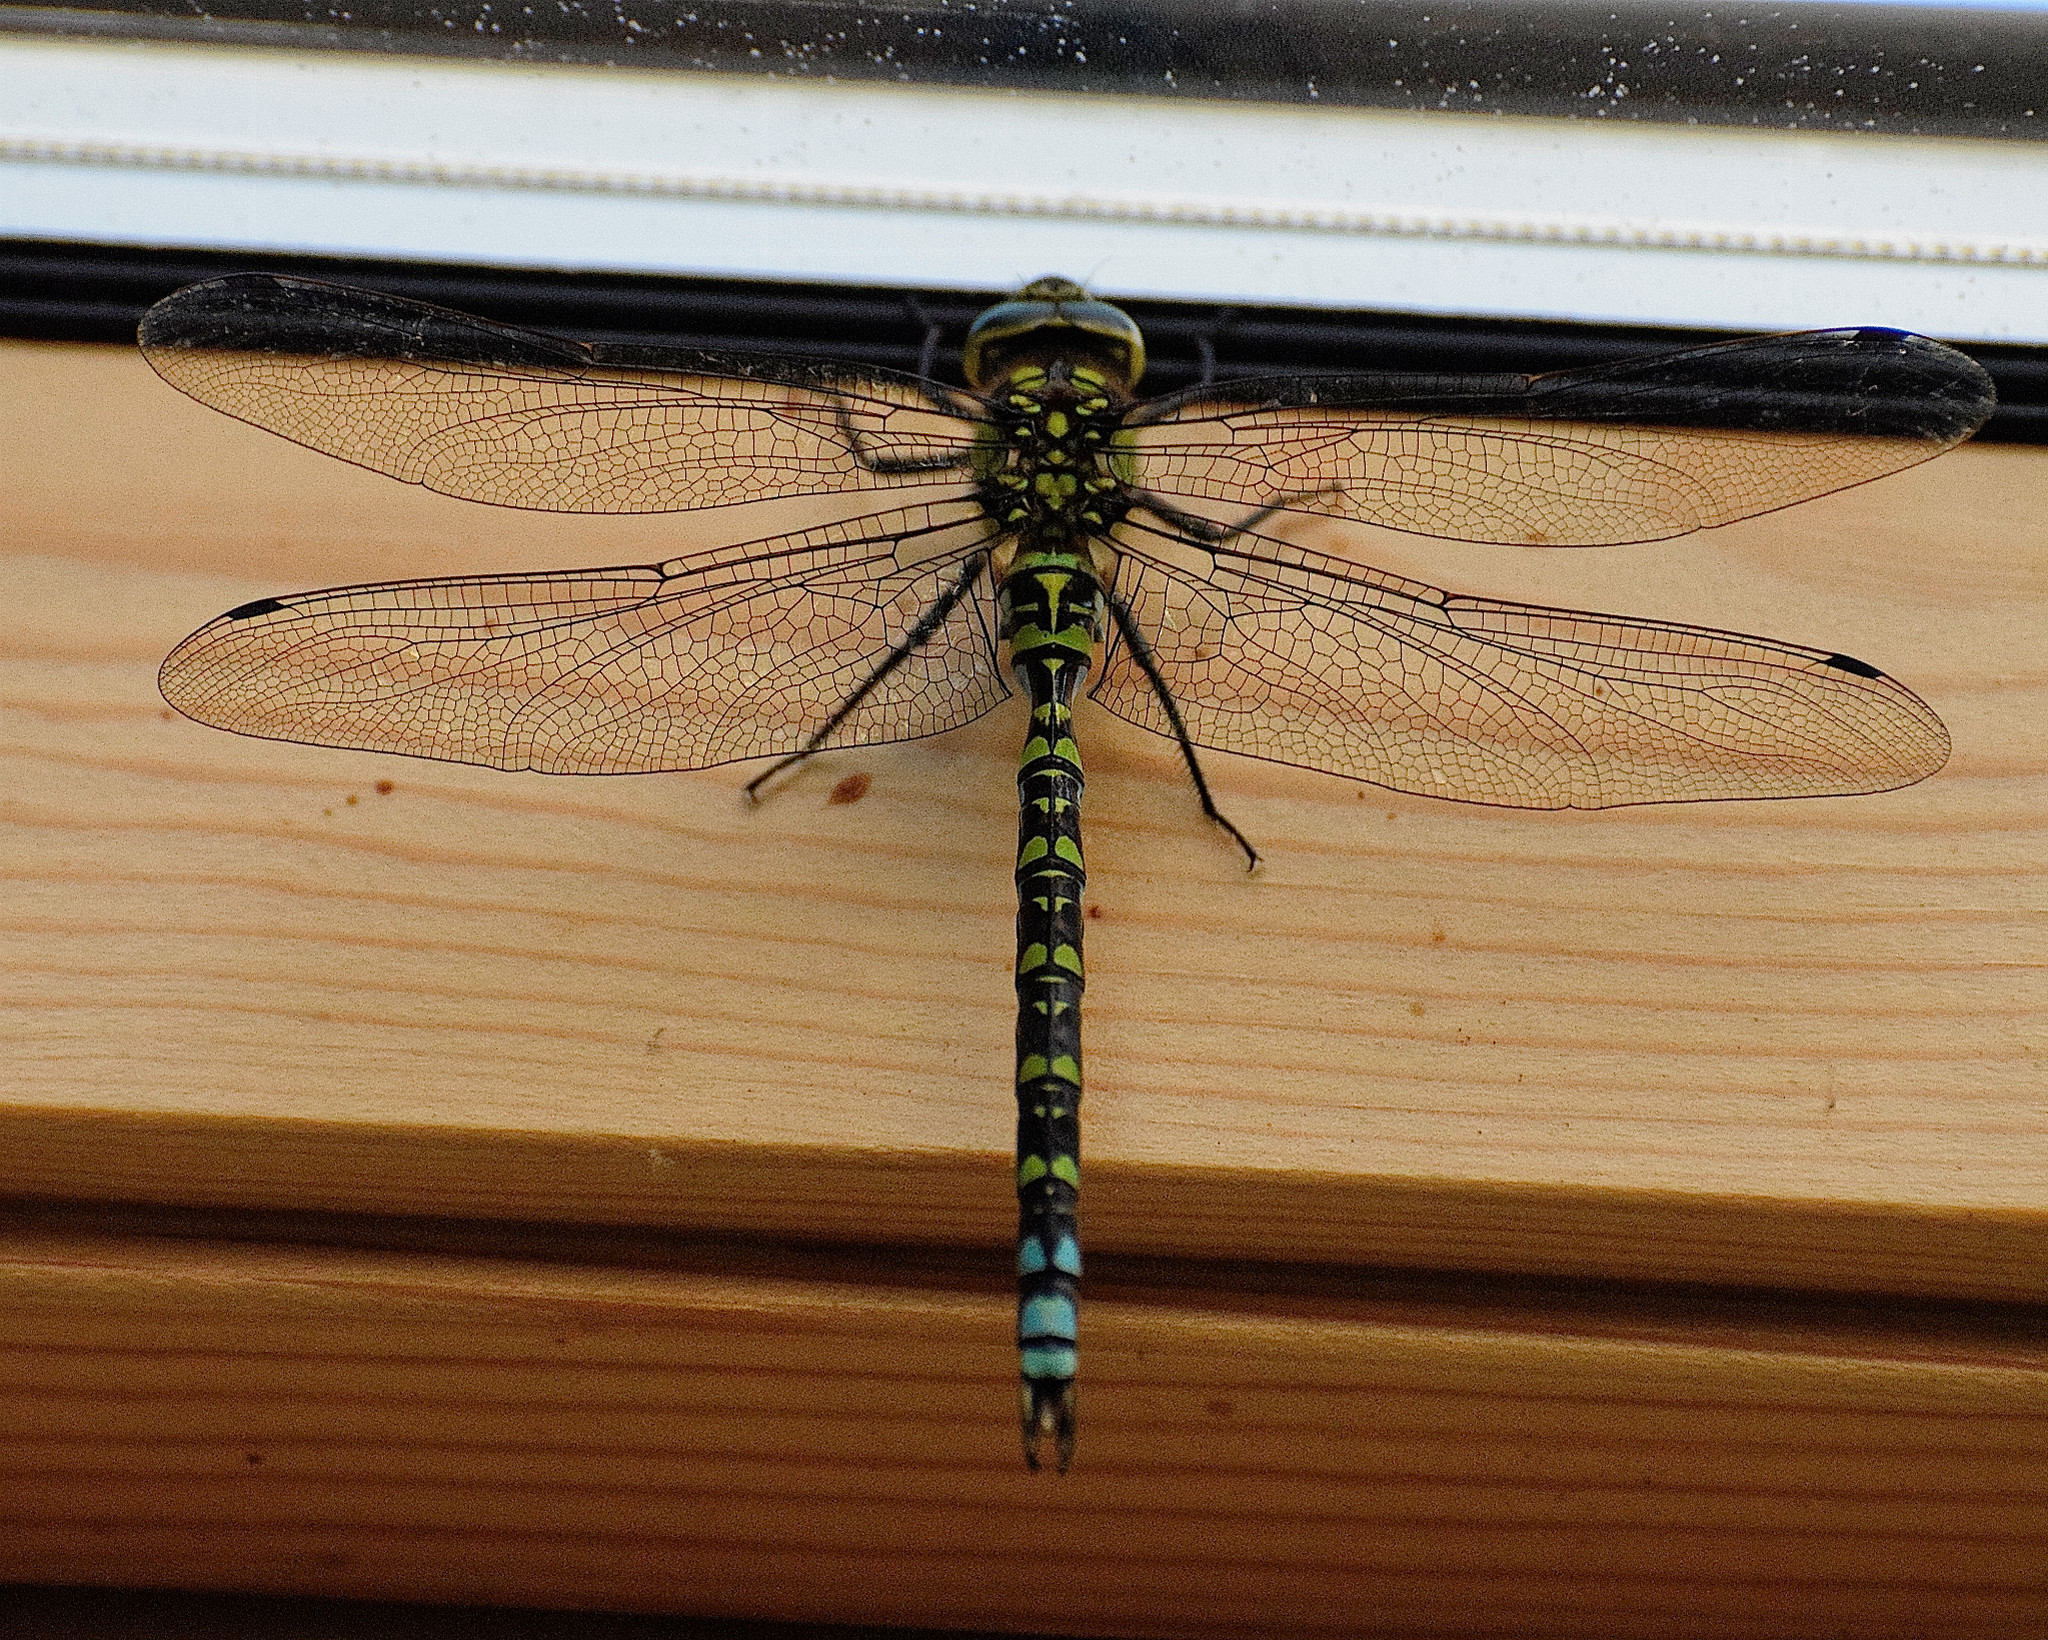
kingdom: Animalia
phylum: Arthropoda
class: Insecta
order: Odonata
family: Aeshnidae
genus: Aeshna
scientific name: Aeshna cyanea
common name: Southern hawker
